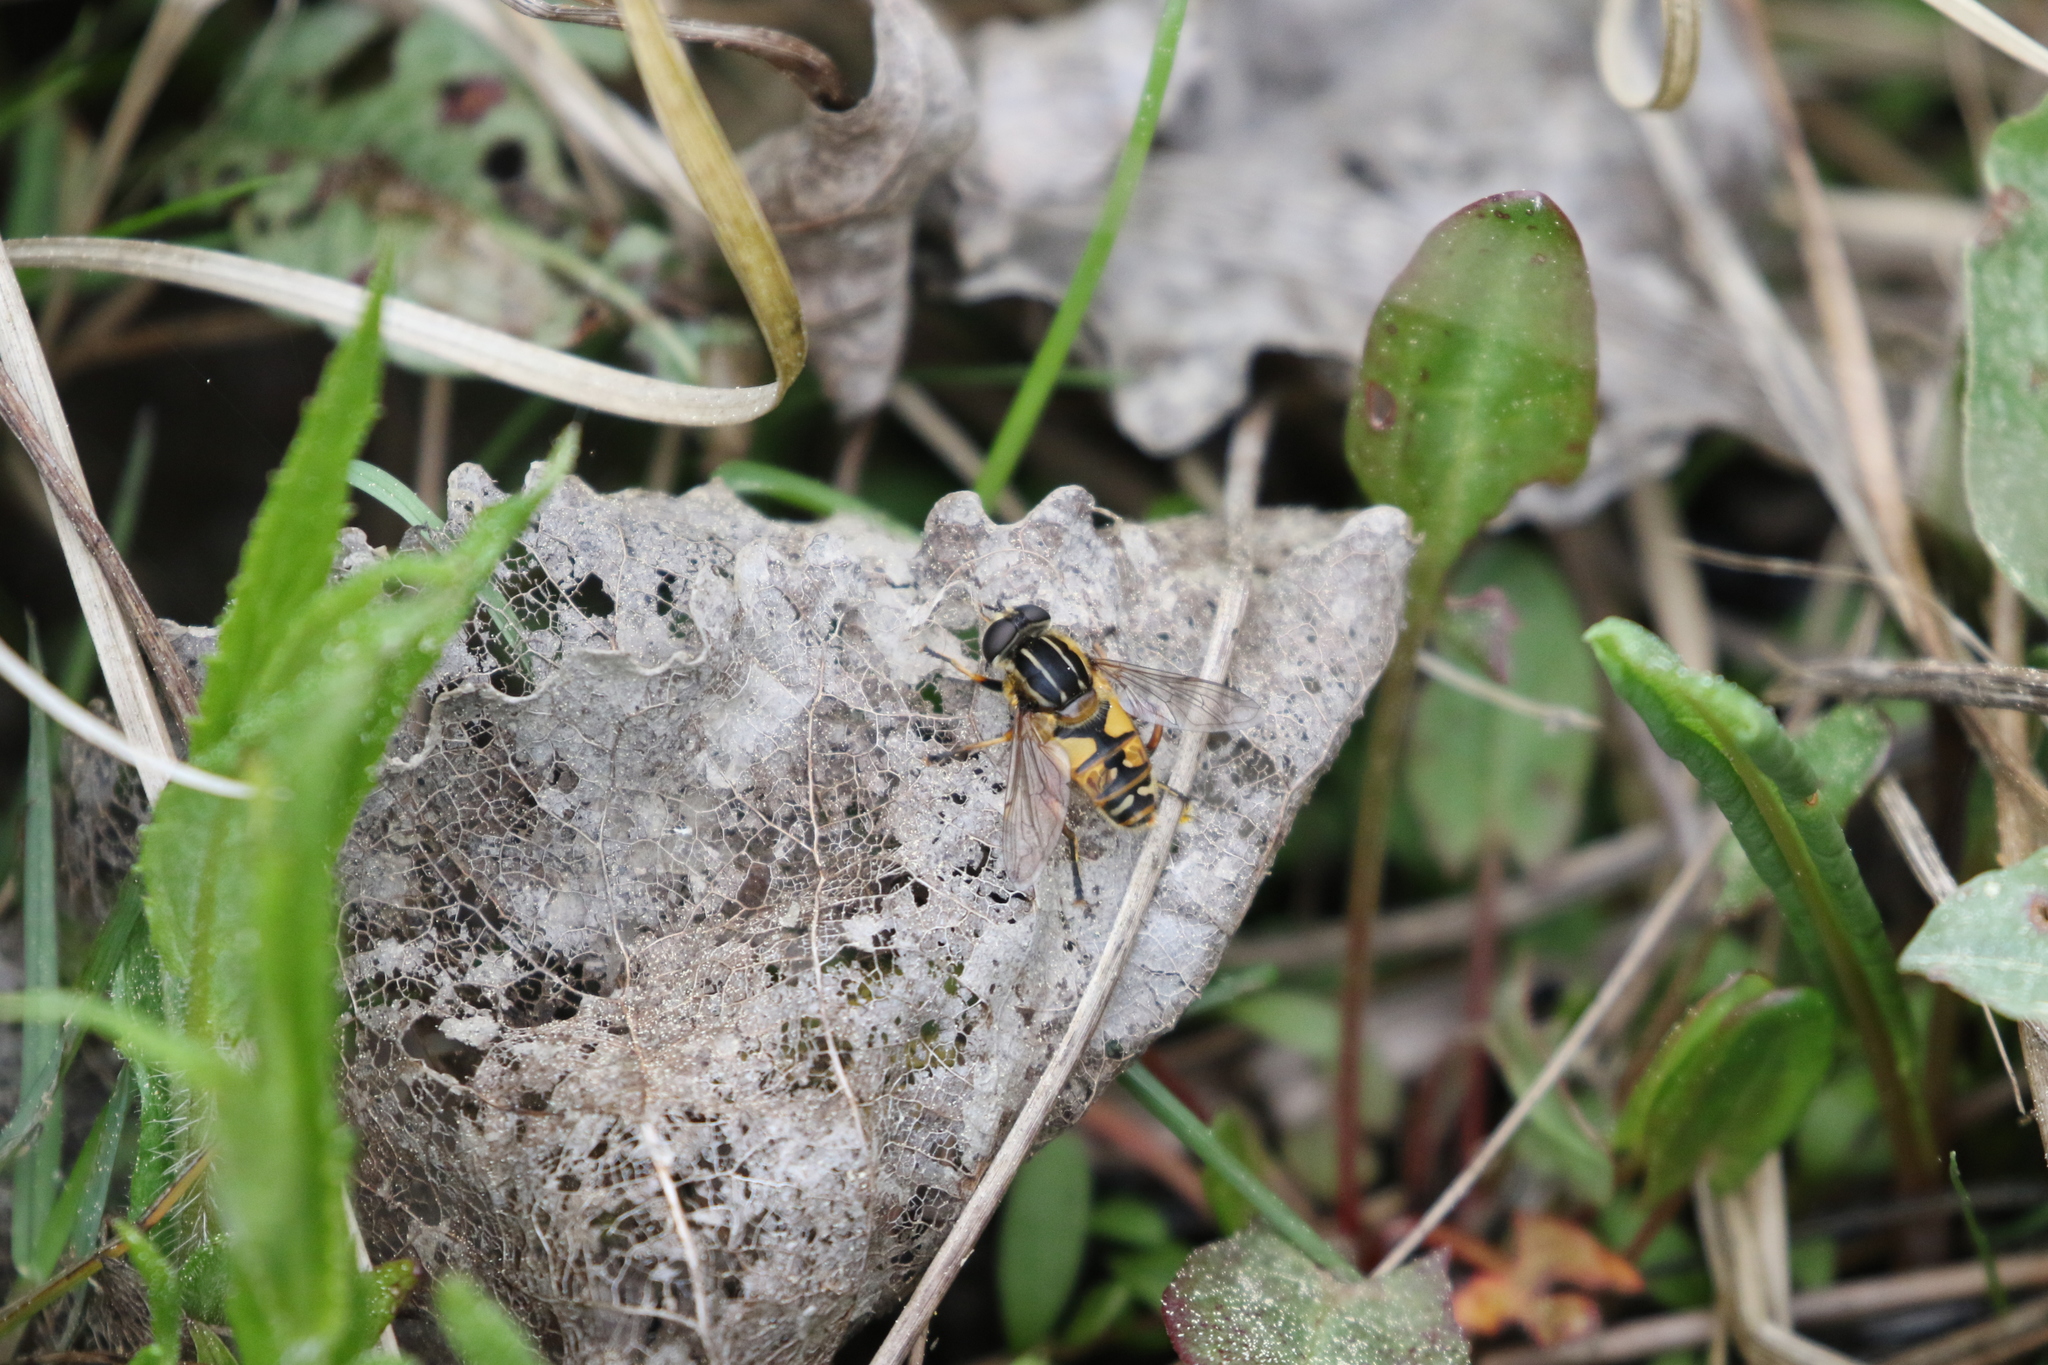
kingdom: Animalia
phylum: Arthropoda
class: Insecta
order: Diptera
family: Syrphidae
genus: Helophilus
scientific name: Helophilus pendulus
